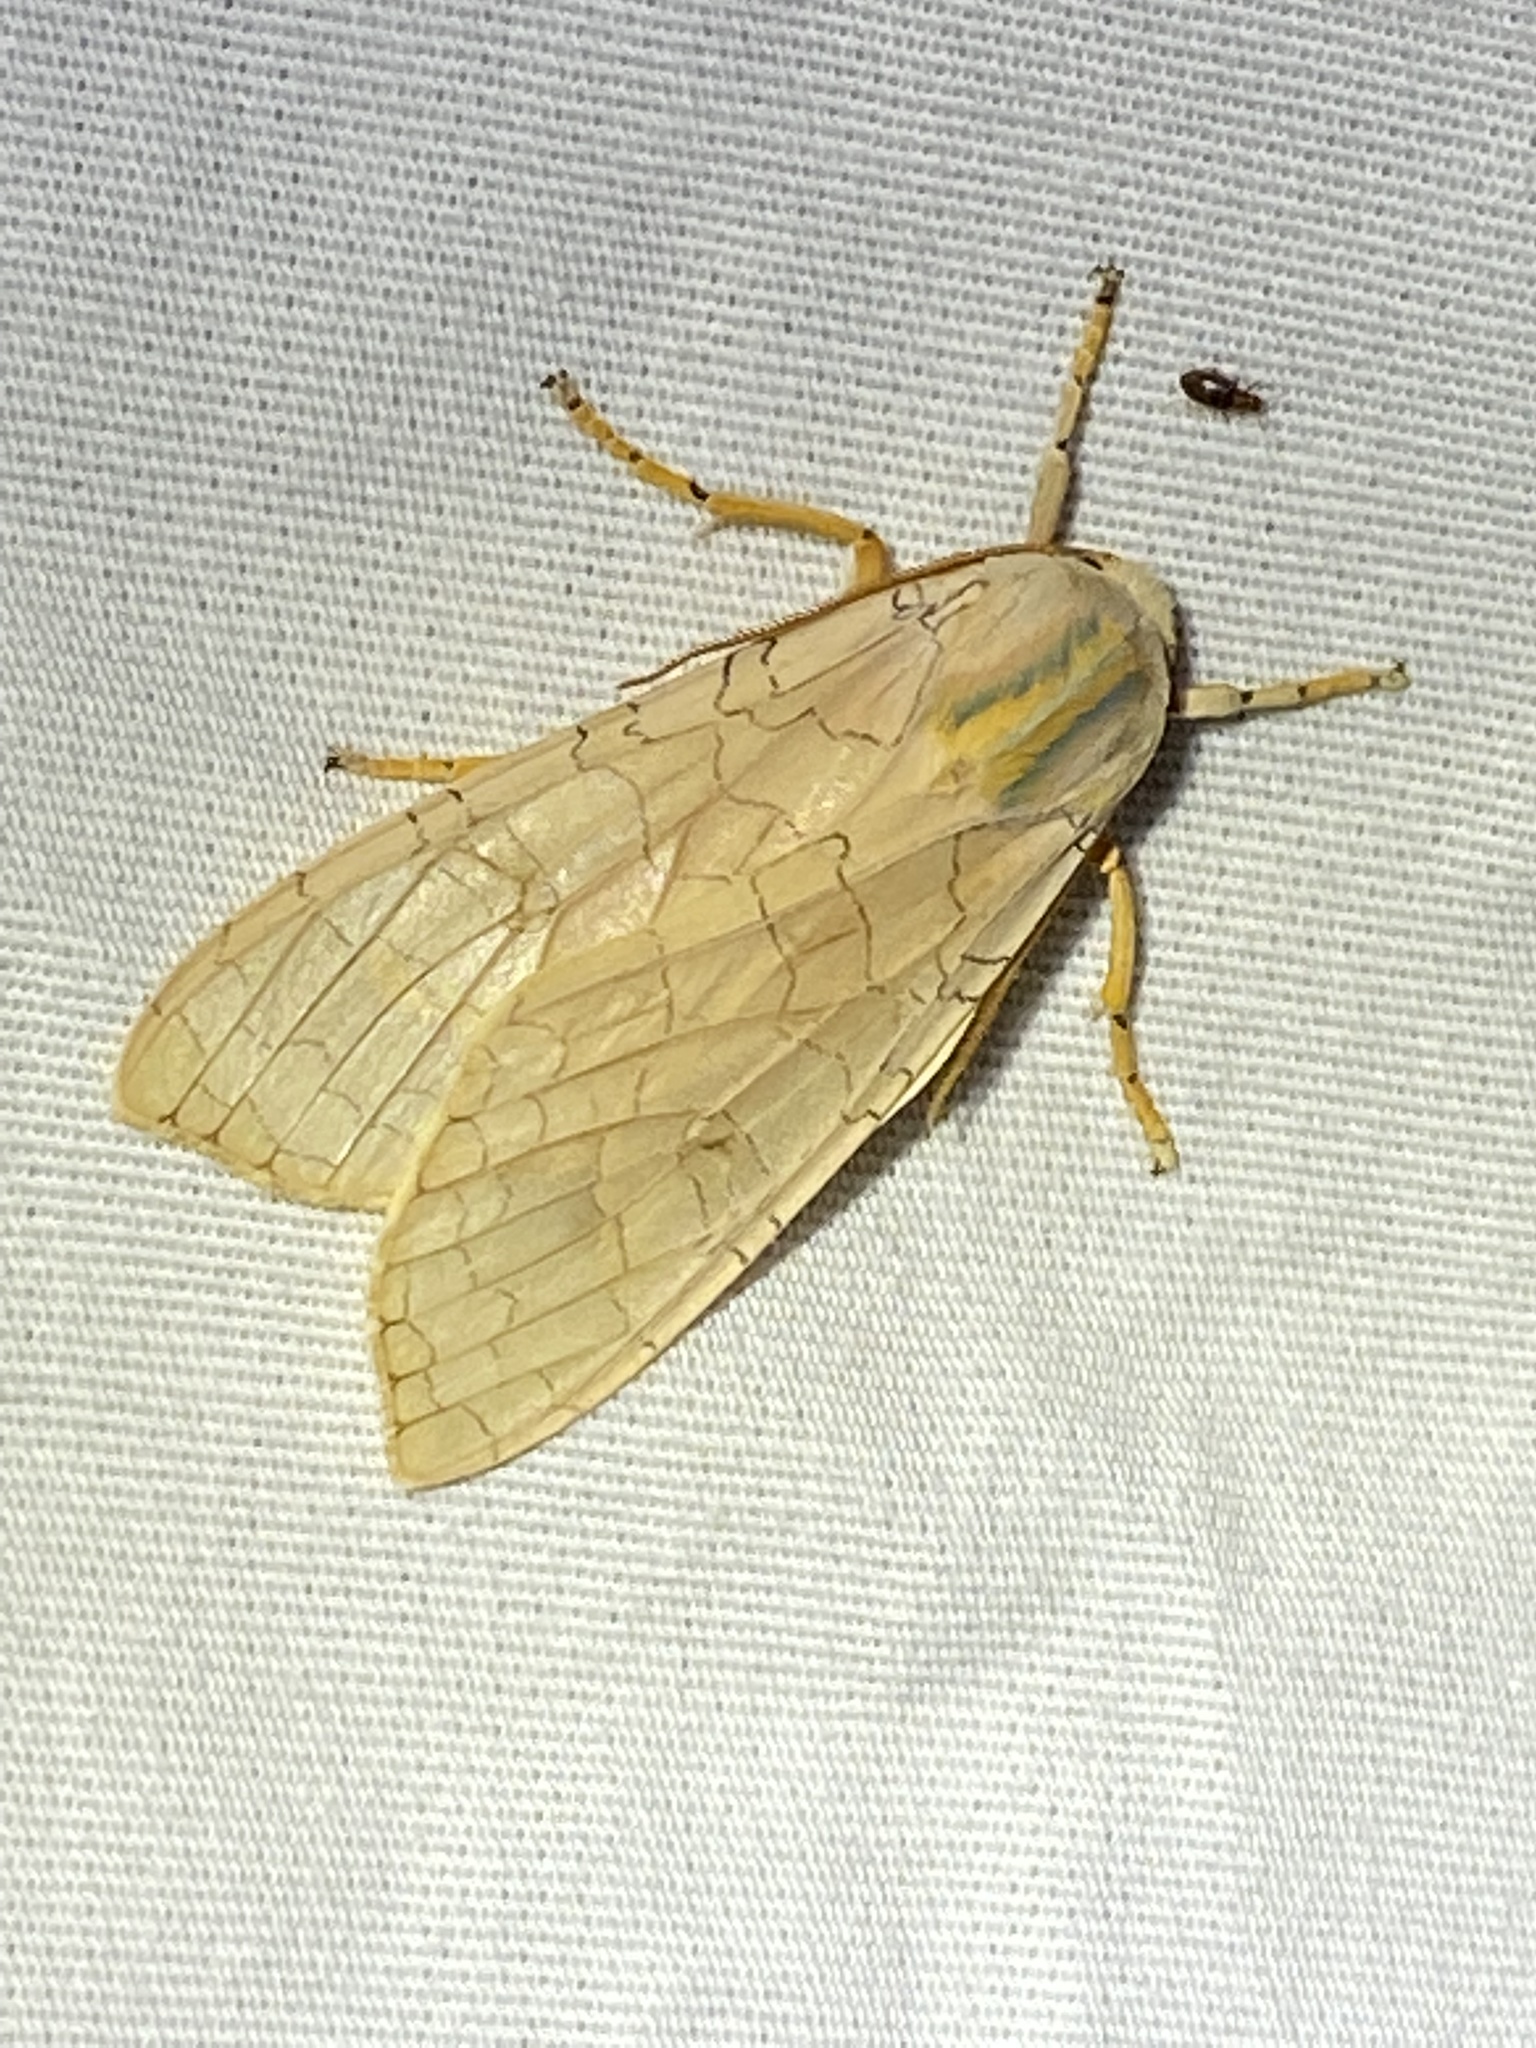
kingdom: Animalia
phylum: Arthropoda
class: Insecta
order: Lepidoptera
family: Erebidae
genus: Halysidota
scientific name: Halysidota
